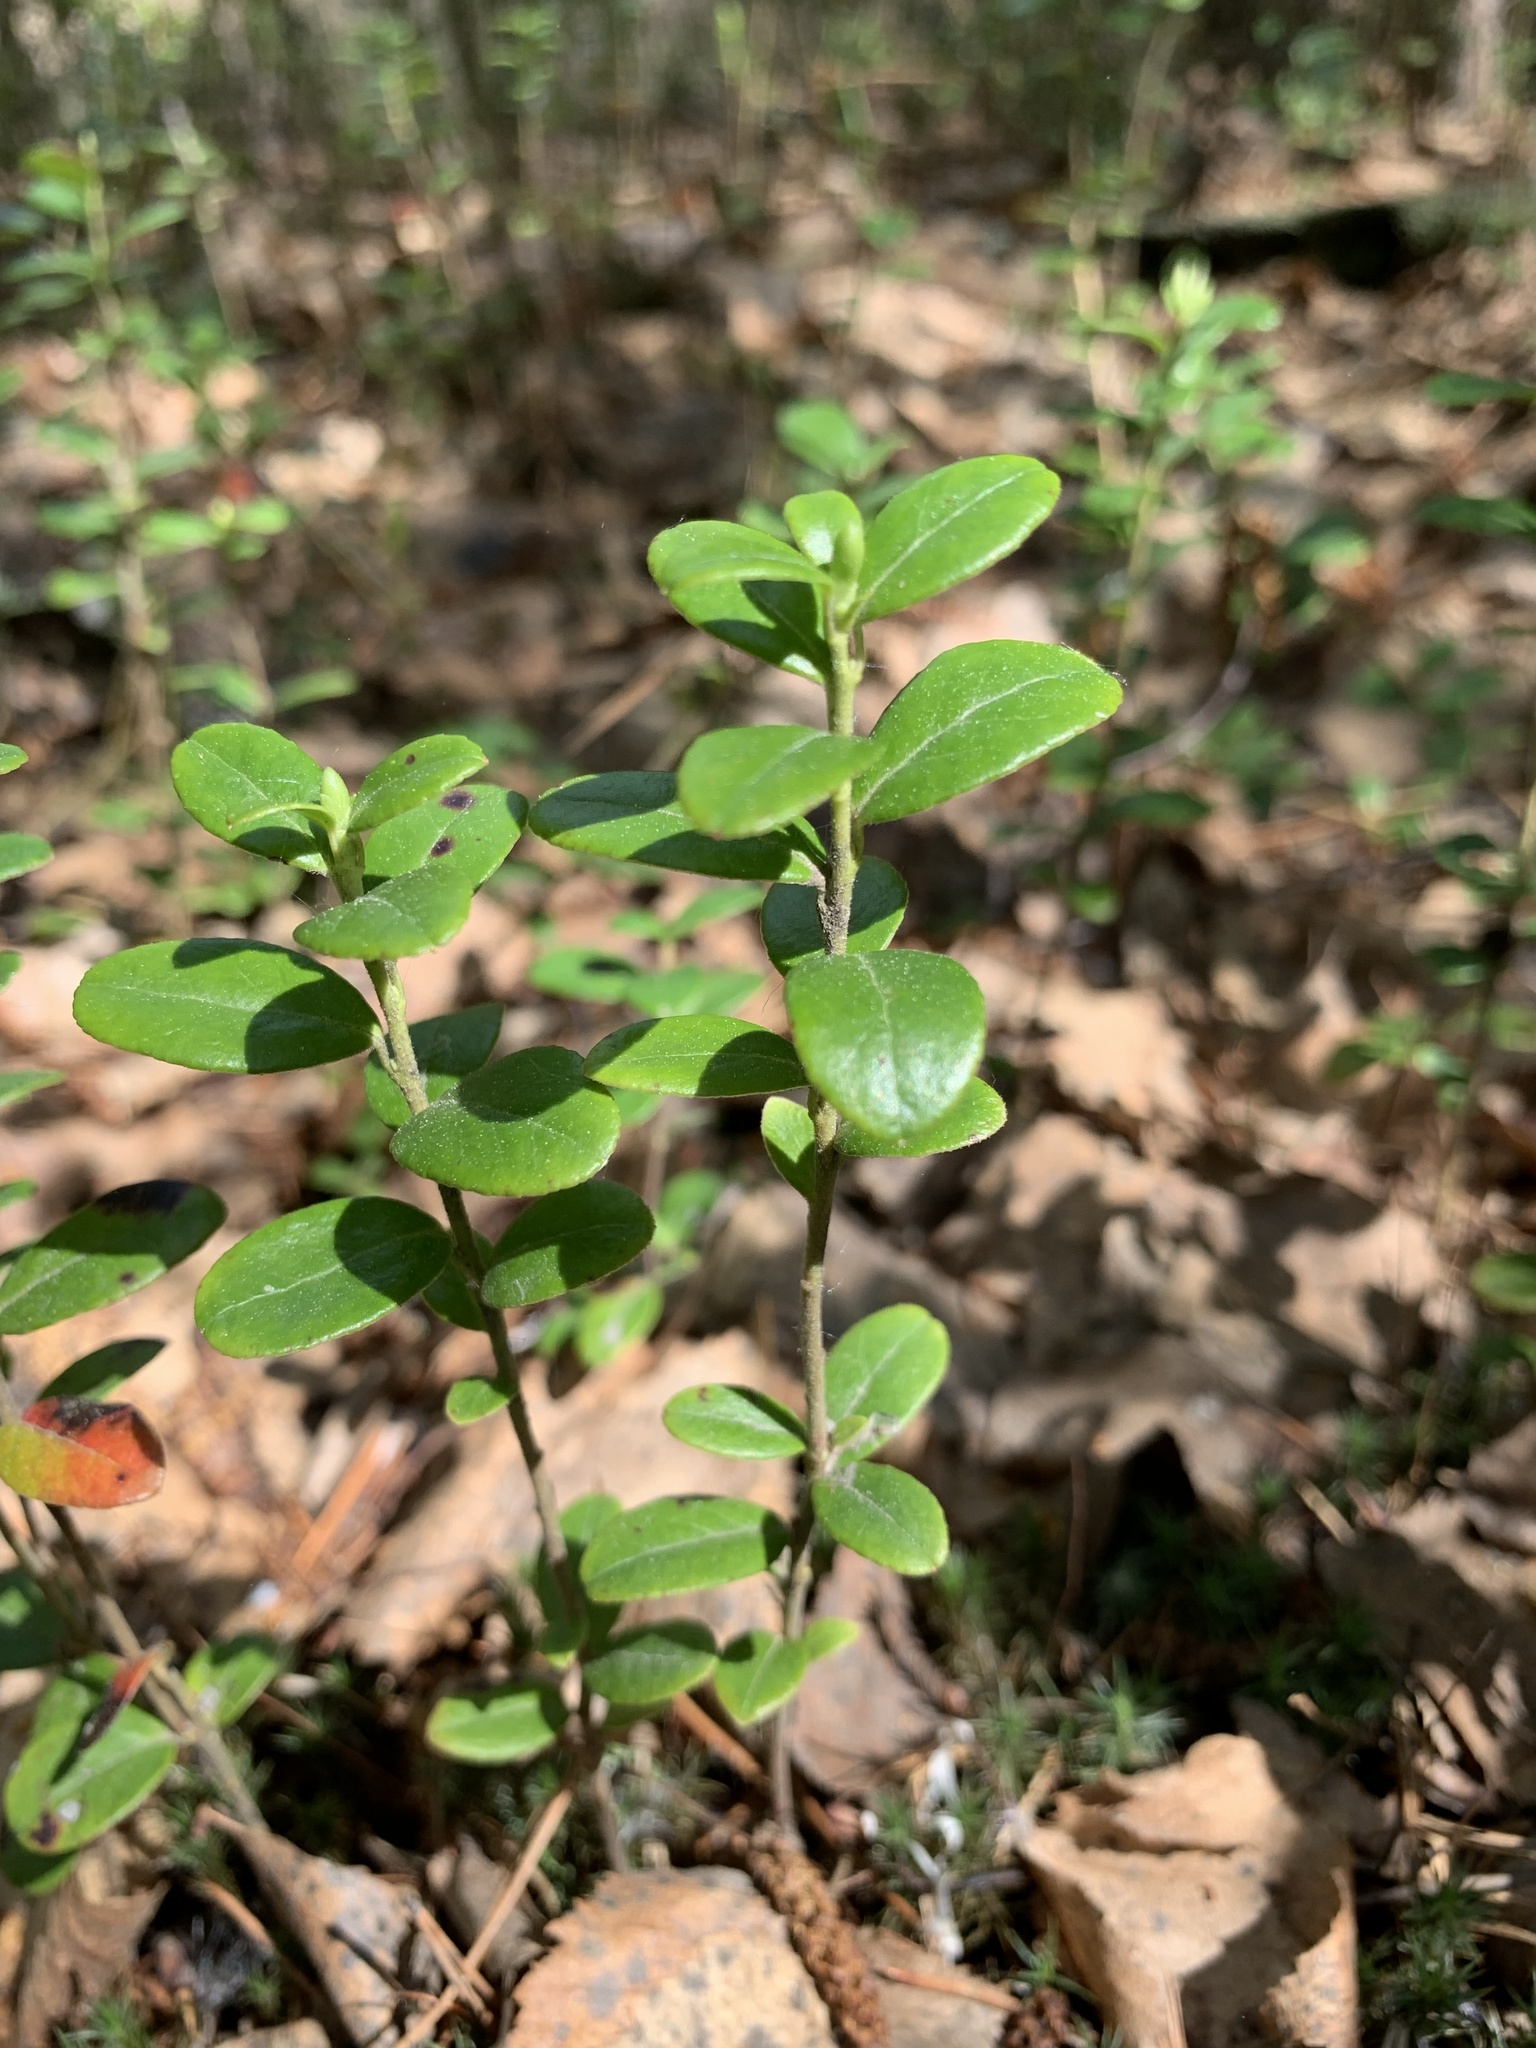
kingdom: Plantae
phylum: Tracheophyta
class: Magnoliopsida
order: Ericales
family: Ericaceae
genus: Vaccinium
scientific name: Vaccinium vitis-idaea
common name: Cowberry
